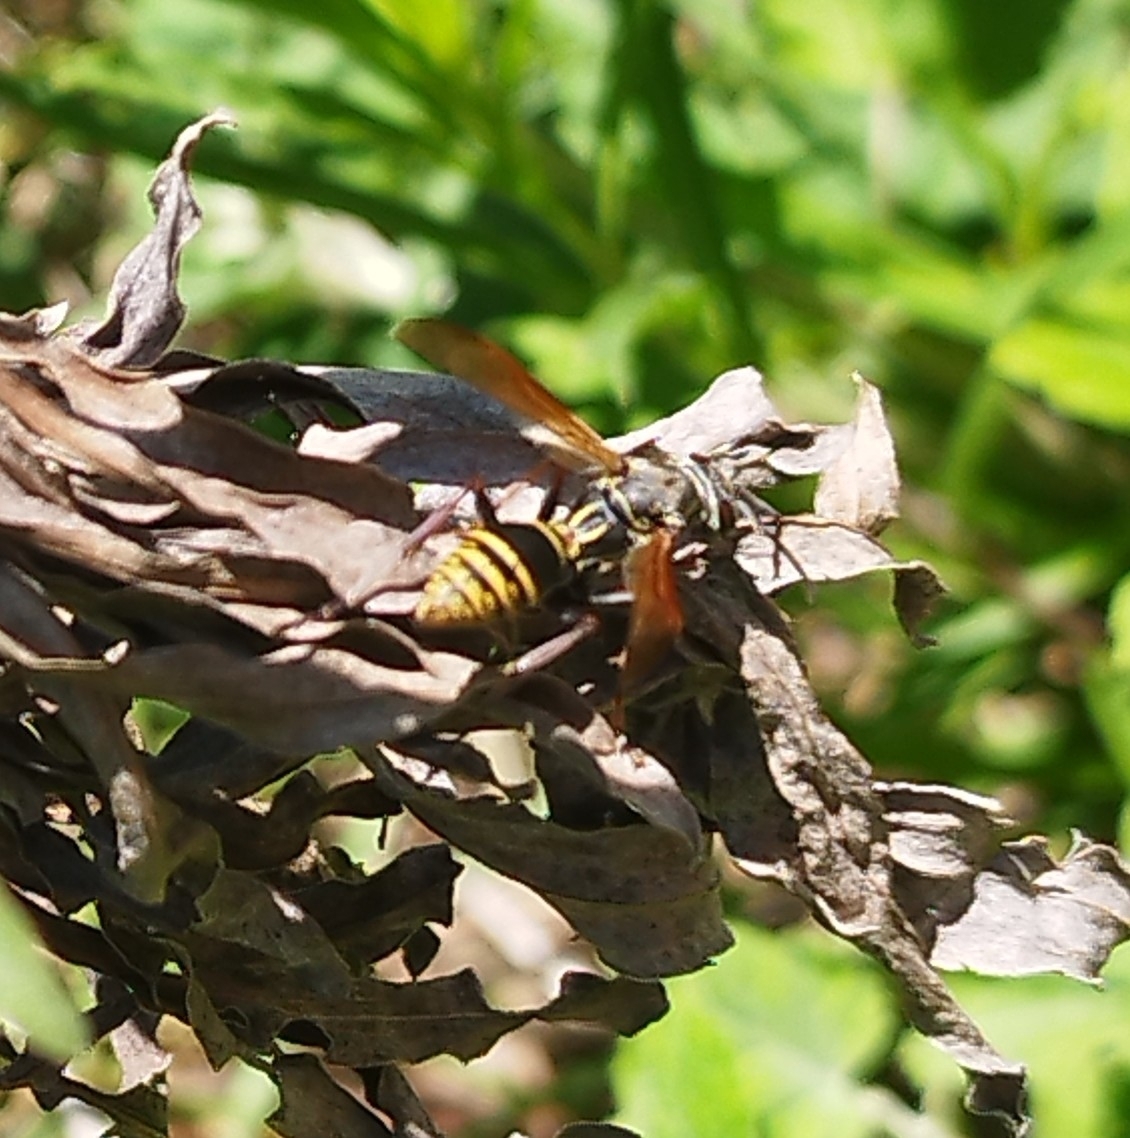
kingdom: Animalia
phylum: Arthropoda
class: Insecta
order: Hymenoptera
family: Eumenidae
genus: Polistes
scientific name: Polistes cinerascens
